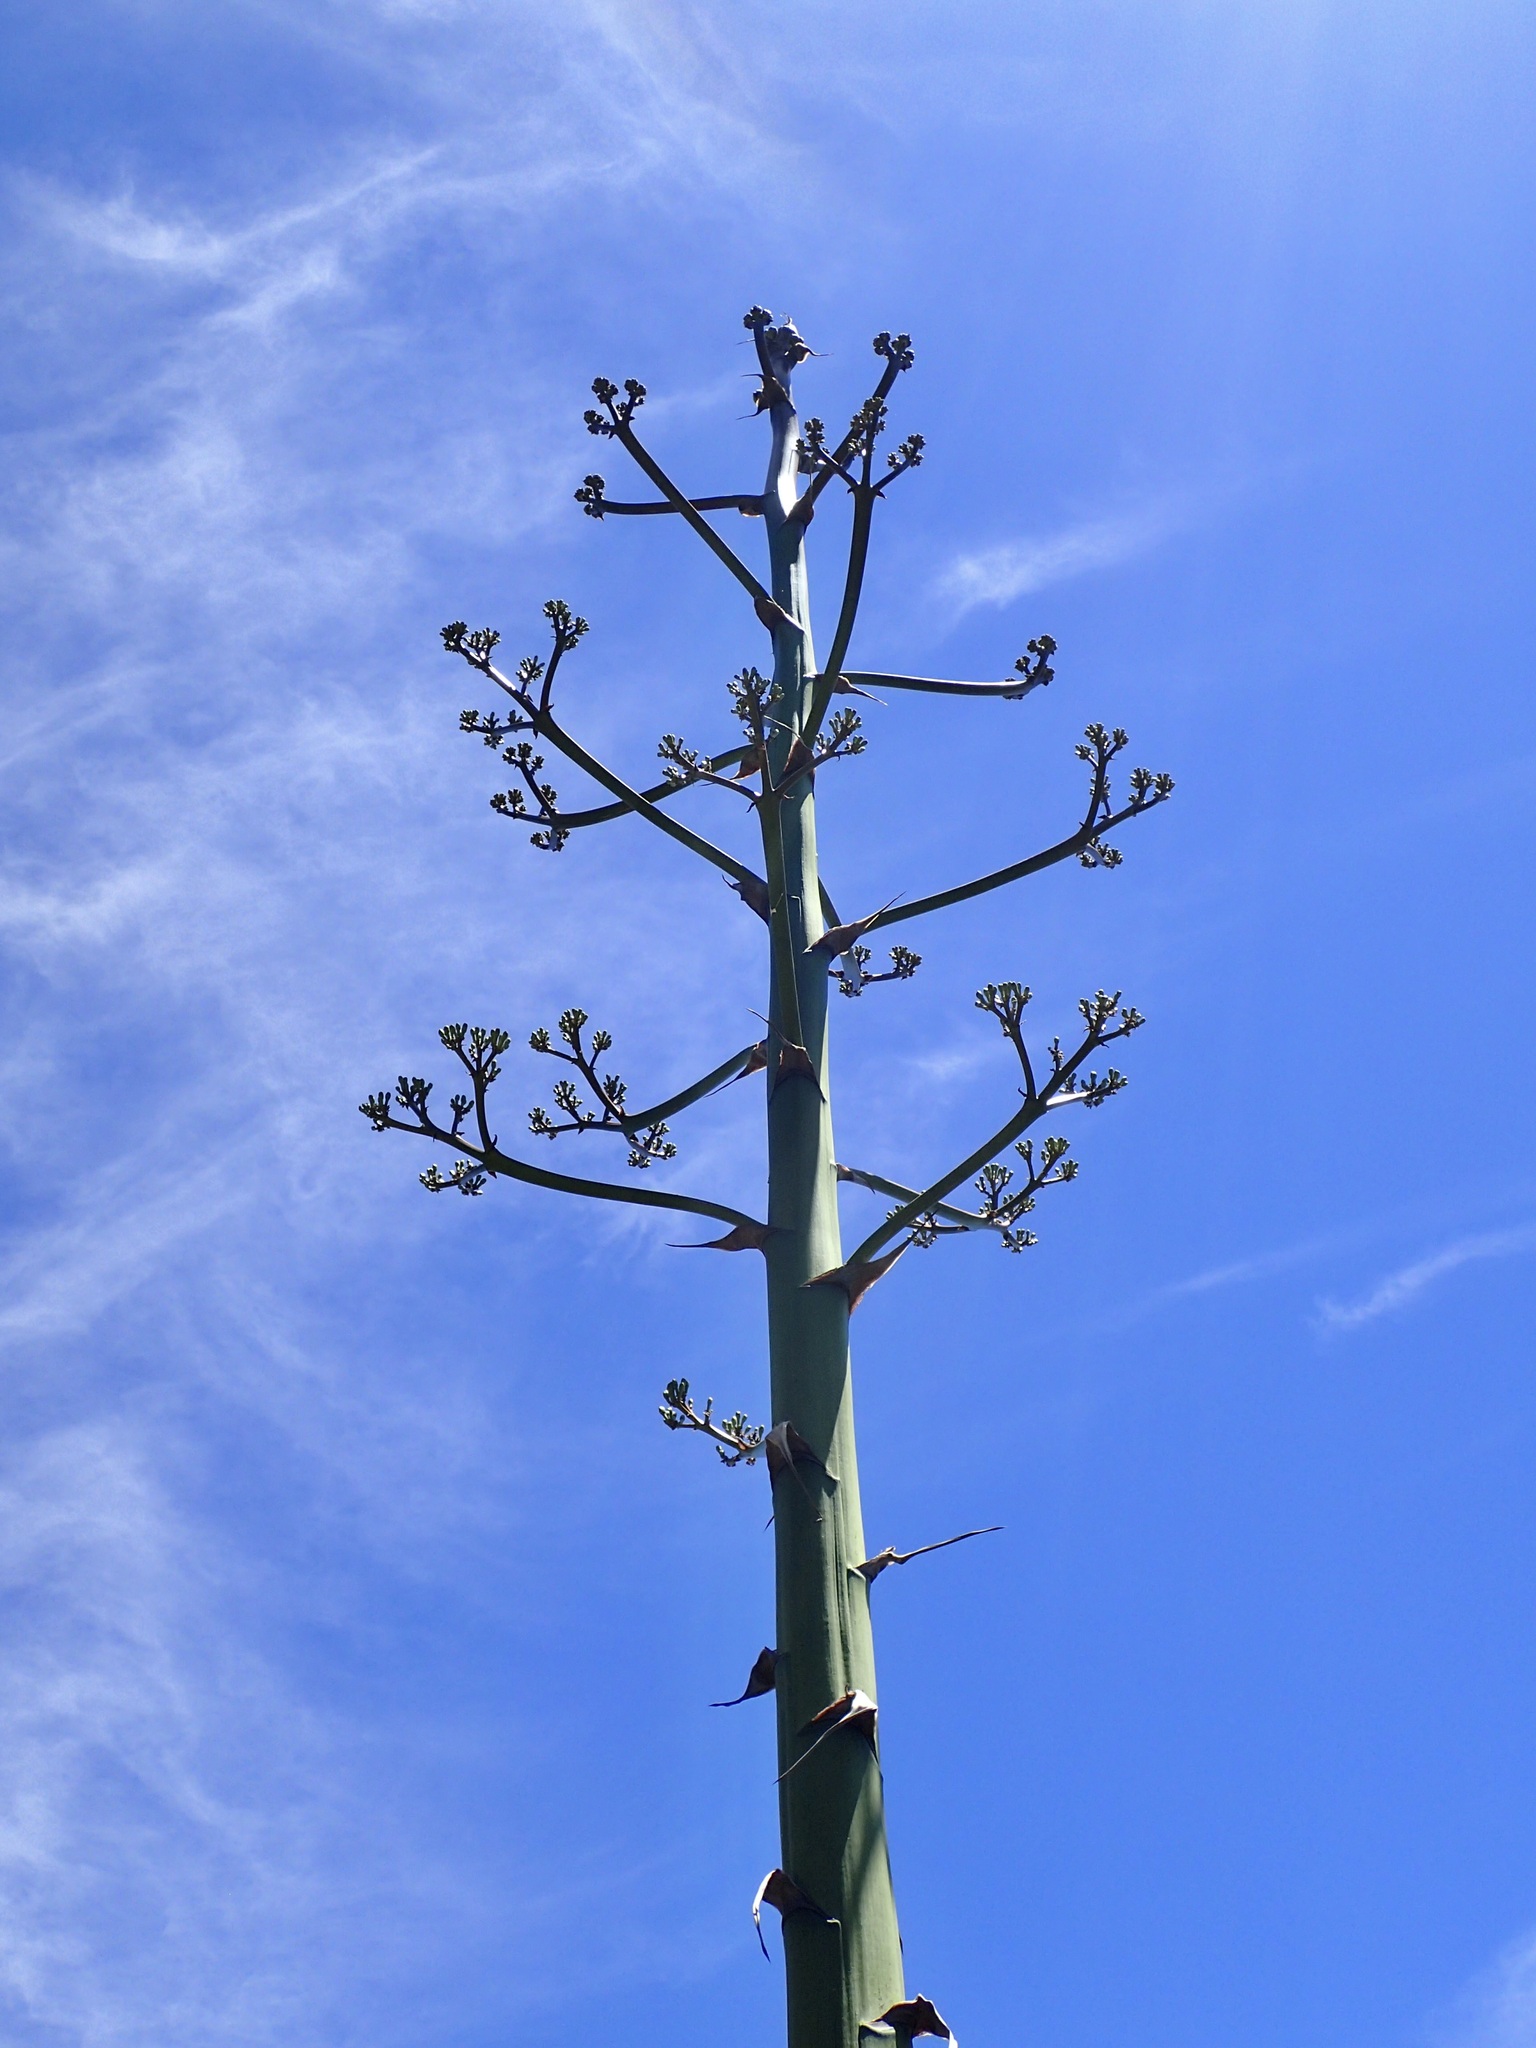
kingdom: Plantae
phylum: Tracheophyta
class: Liliopsida
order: Asparagales
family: Asparagaceae
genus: Agave
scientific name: Agave wocomahi
